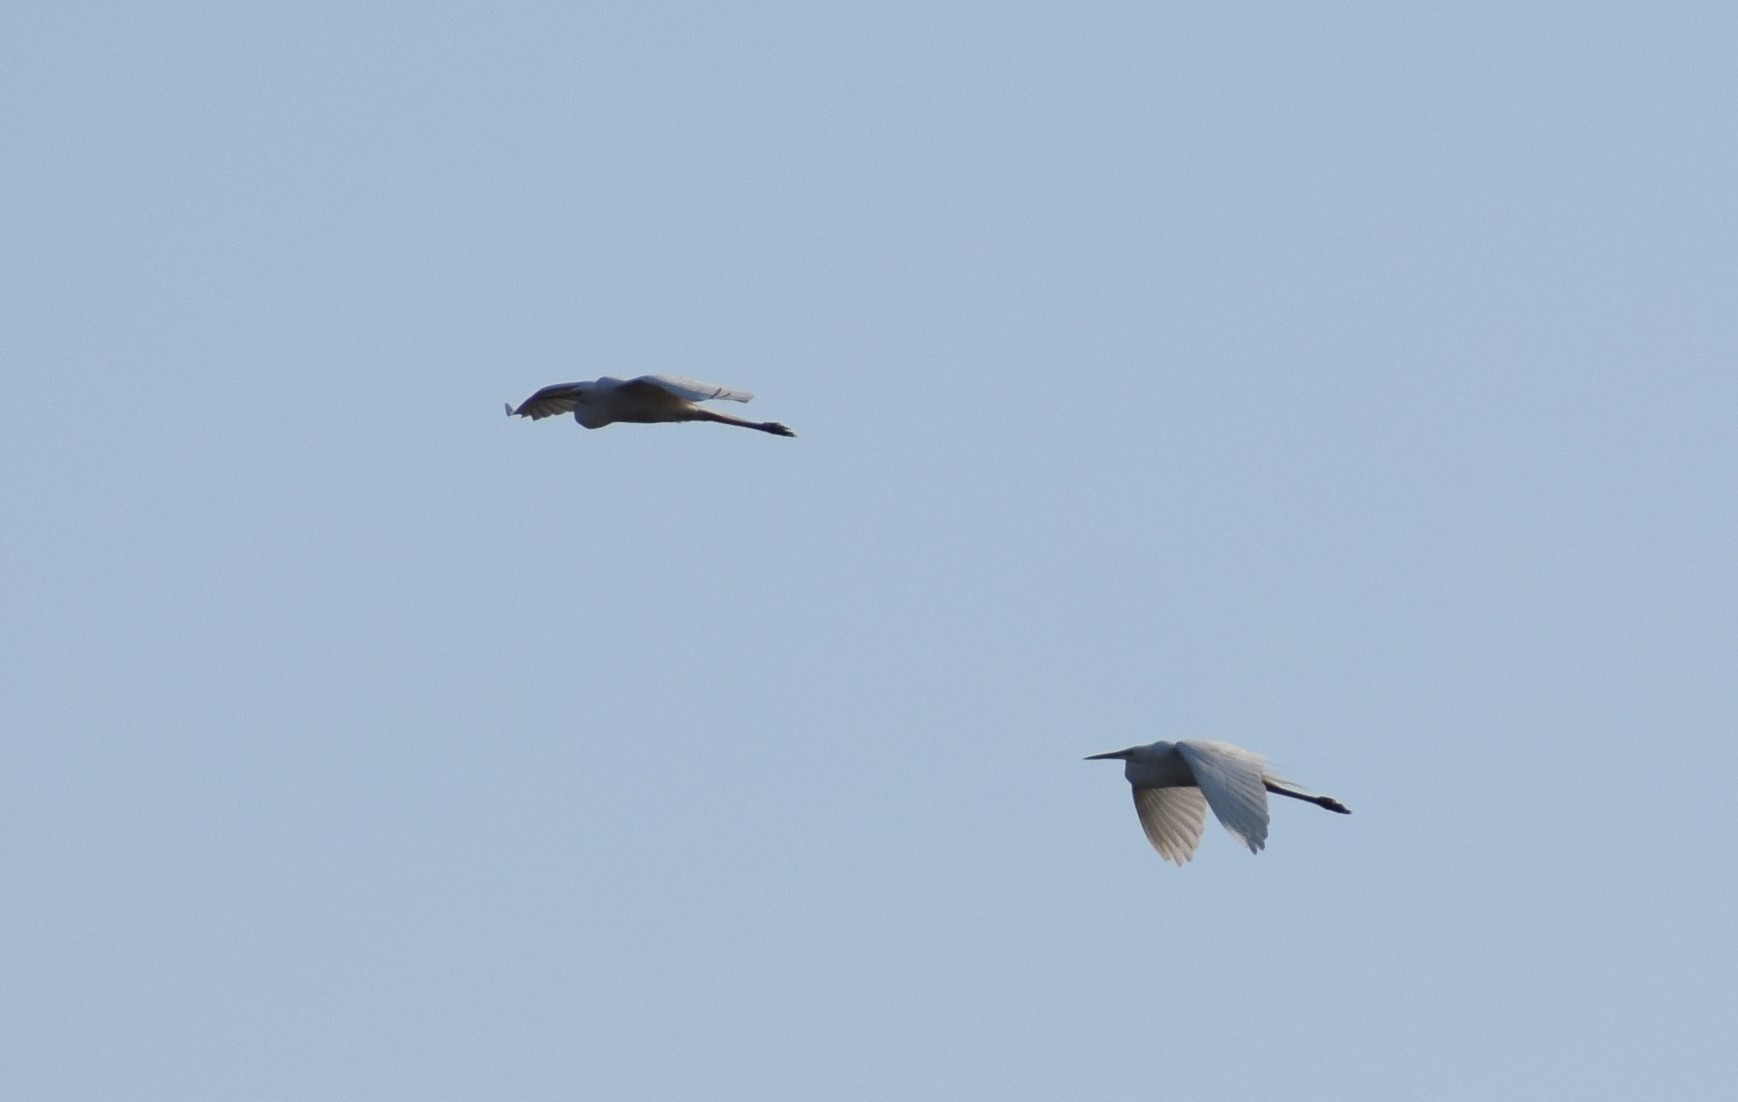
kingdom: Animalia
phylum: Chordata
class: Aves
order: Pelecaniformes
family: Ardeidae
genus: Ardea
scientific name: Ardea alba
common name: Great egret
